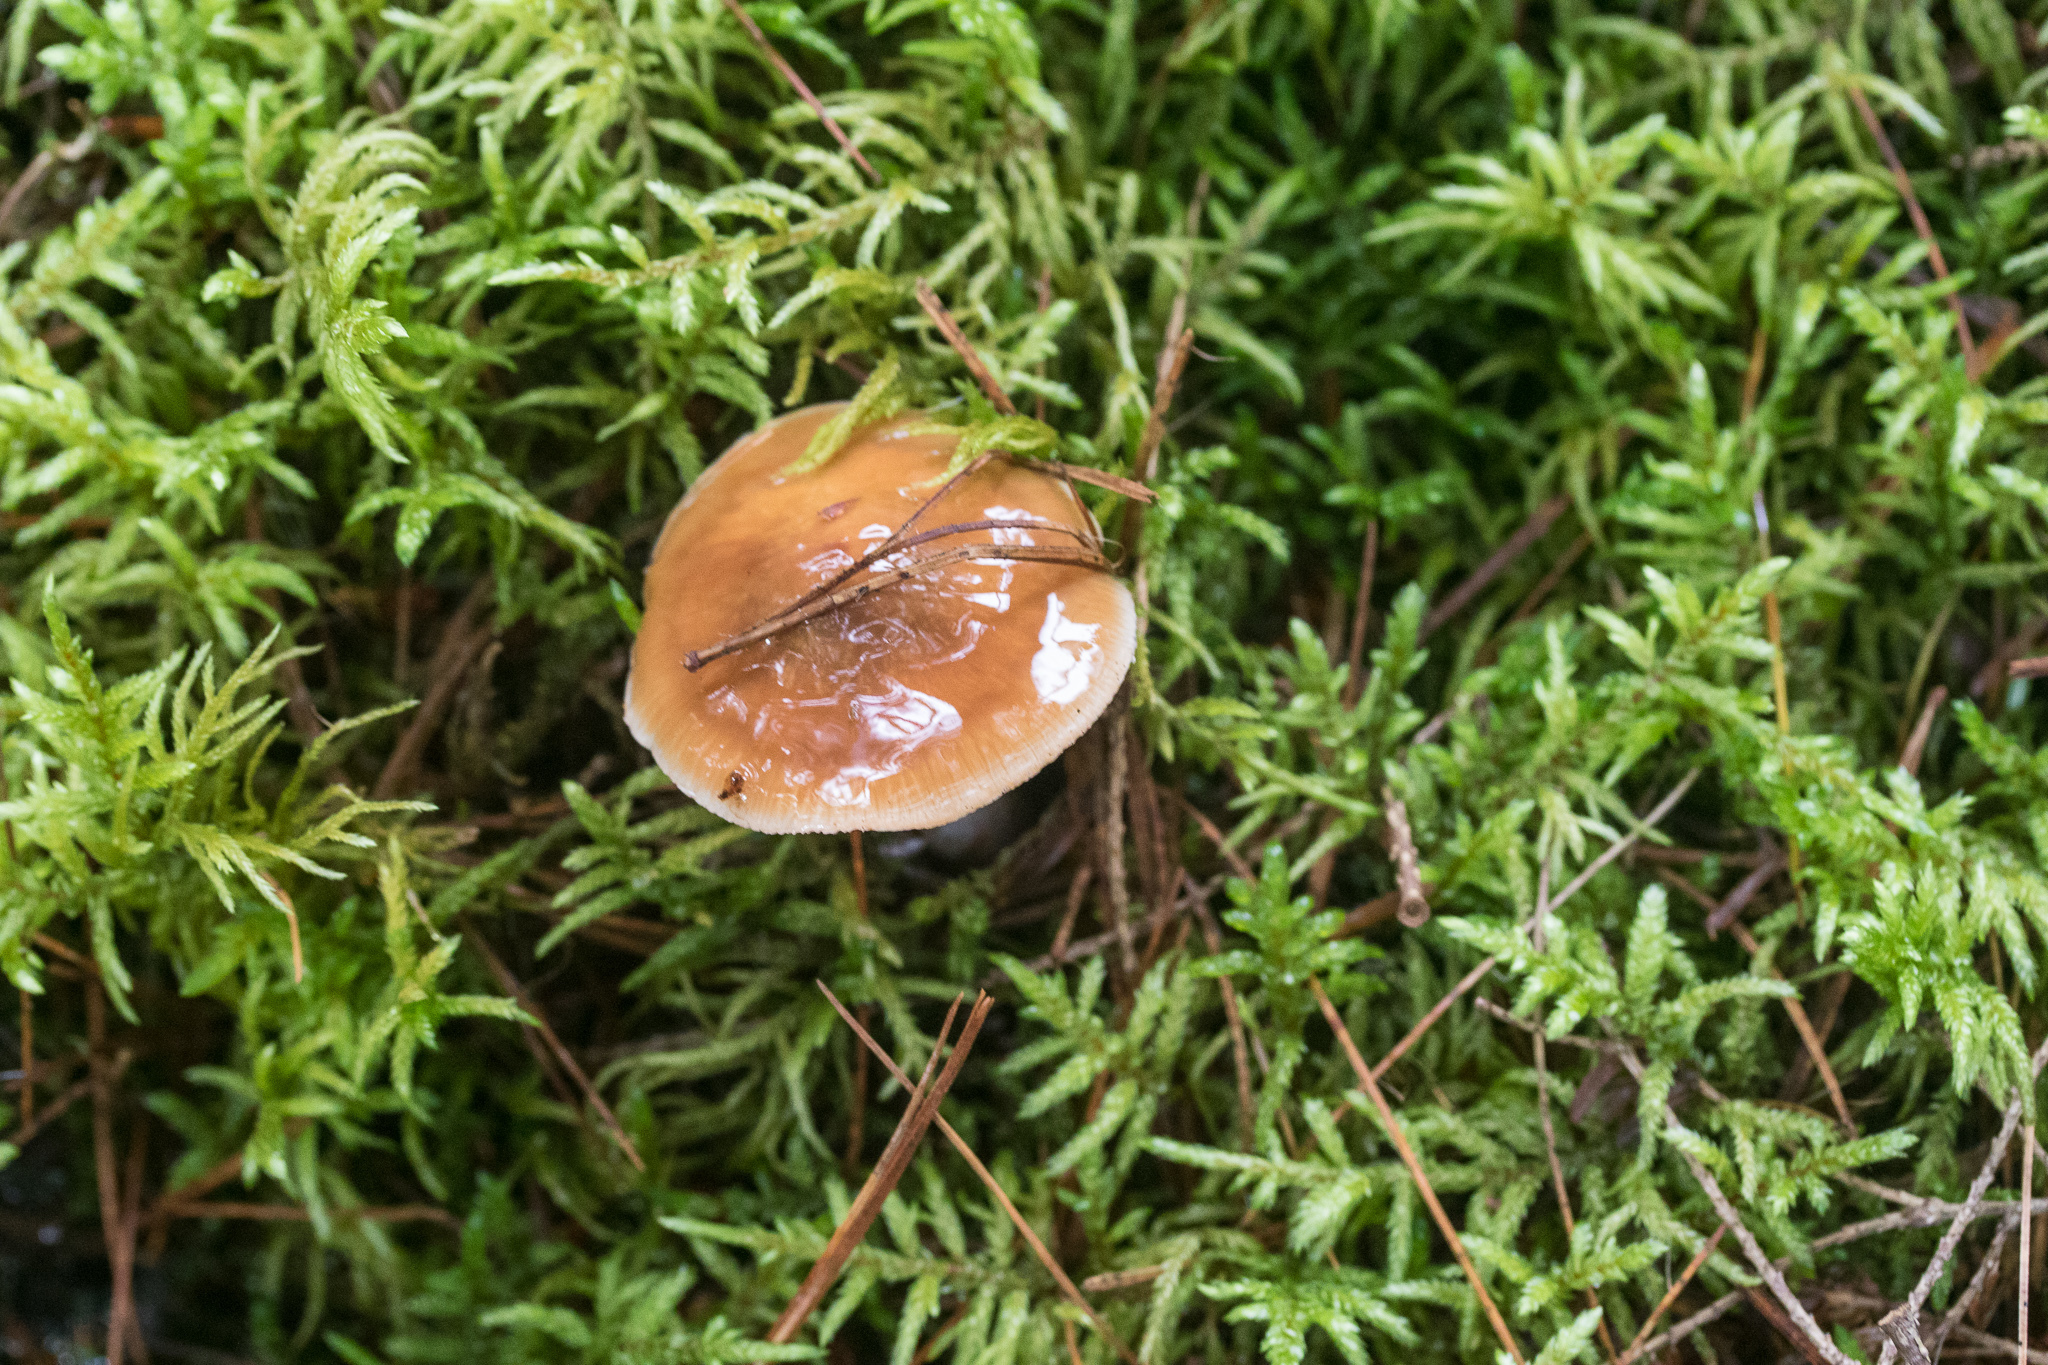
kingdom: Fungi
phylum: Basidiomycota
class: Agaricomycetes
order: Agaricales
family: Cortinariaceae
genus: Cortinarius
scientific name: Cortinarius mucosus
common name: Orange webcap
